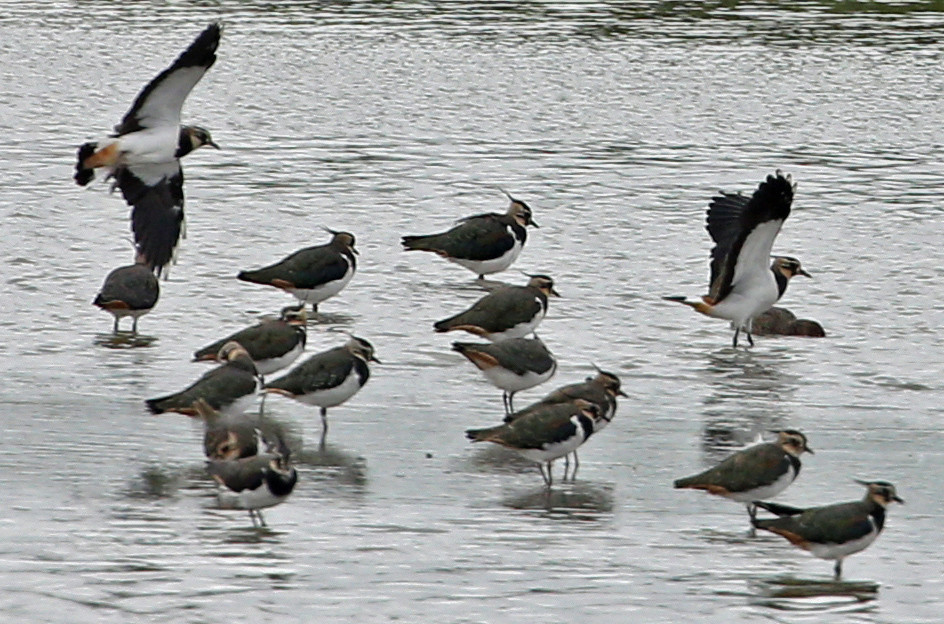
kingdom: Animalia
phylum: Chordata
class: Aves
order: Charadriiformes
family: Charadriidae
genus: Vanellus
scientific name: Vanellus vanellus
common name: Northern lapwing
